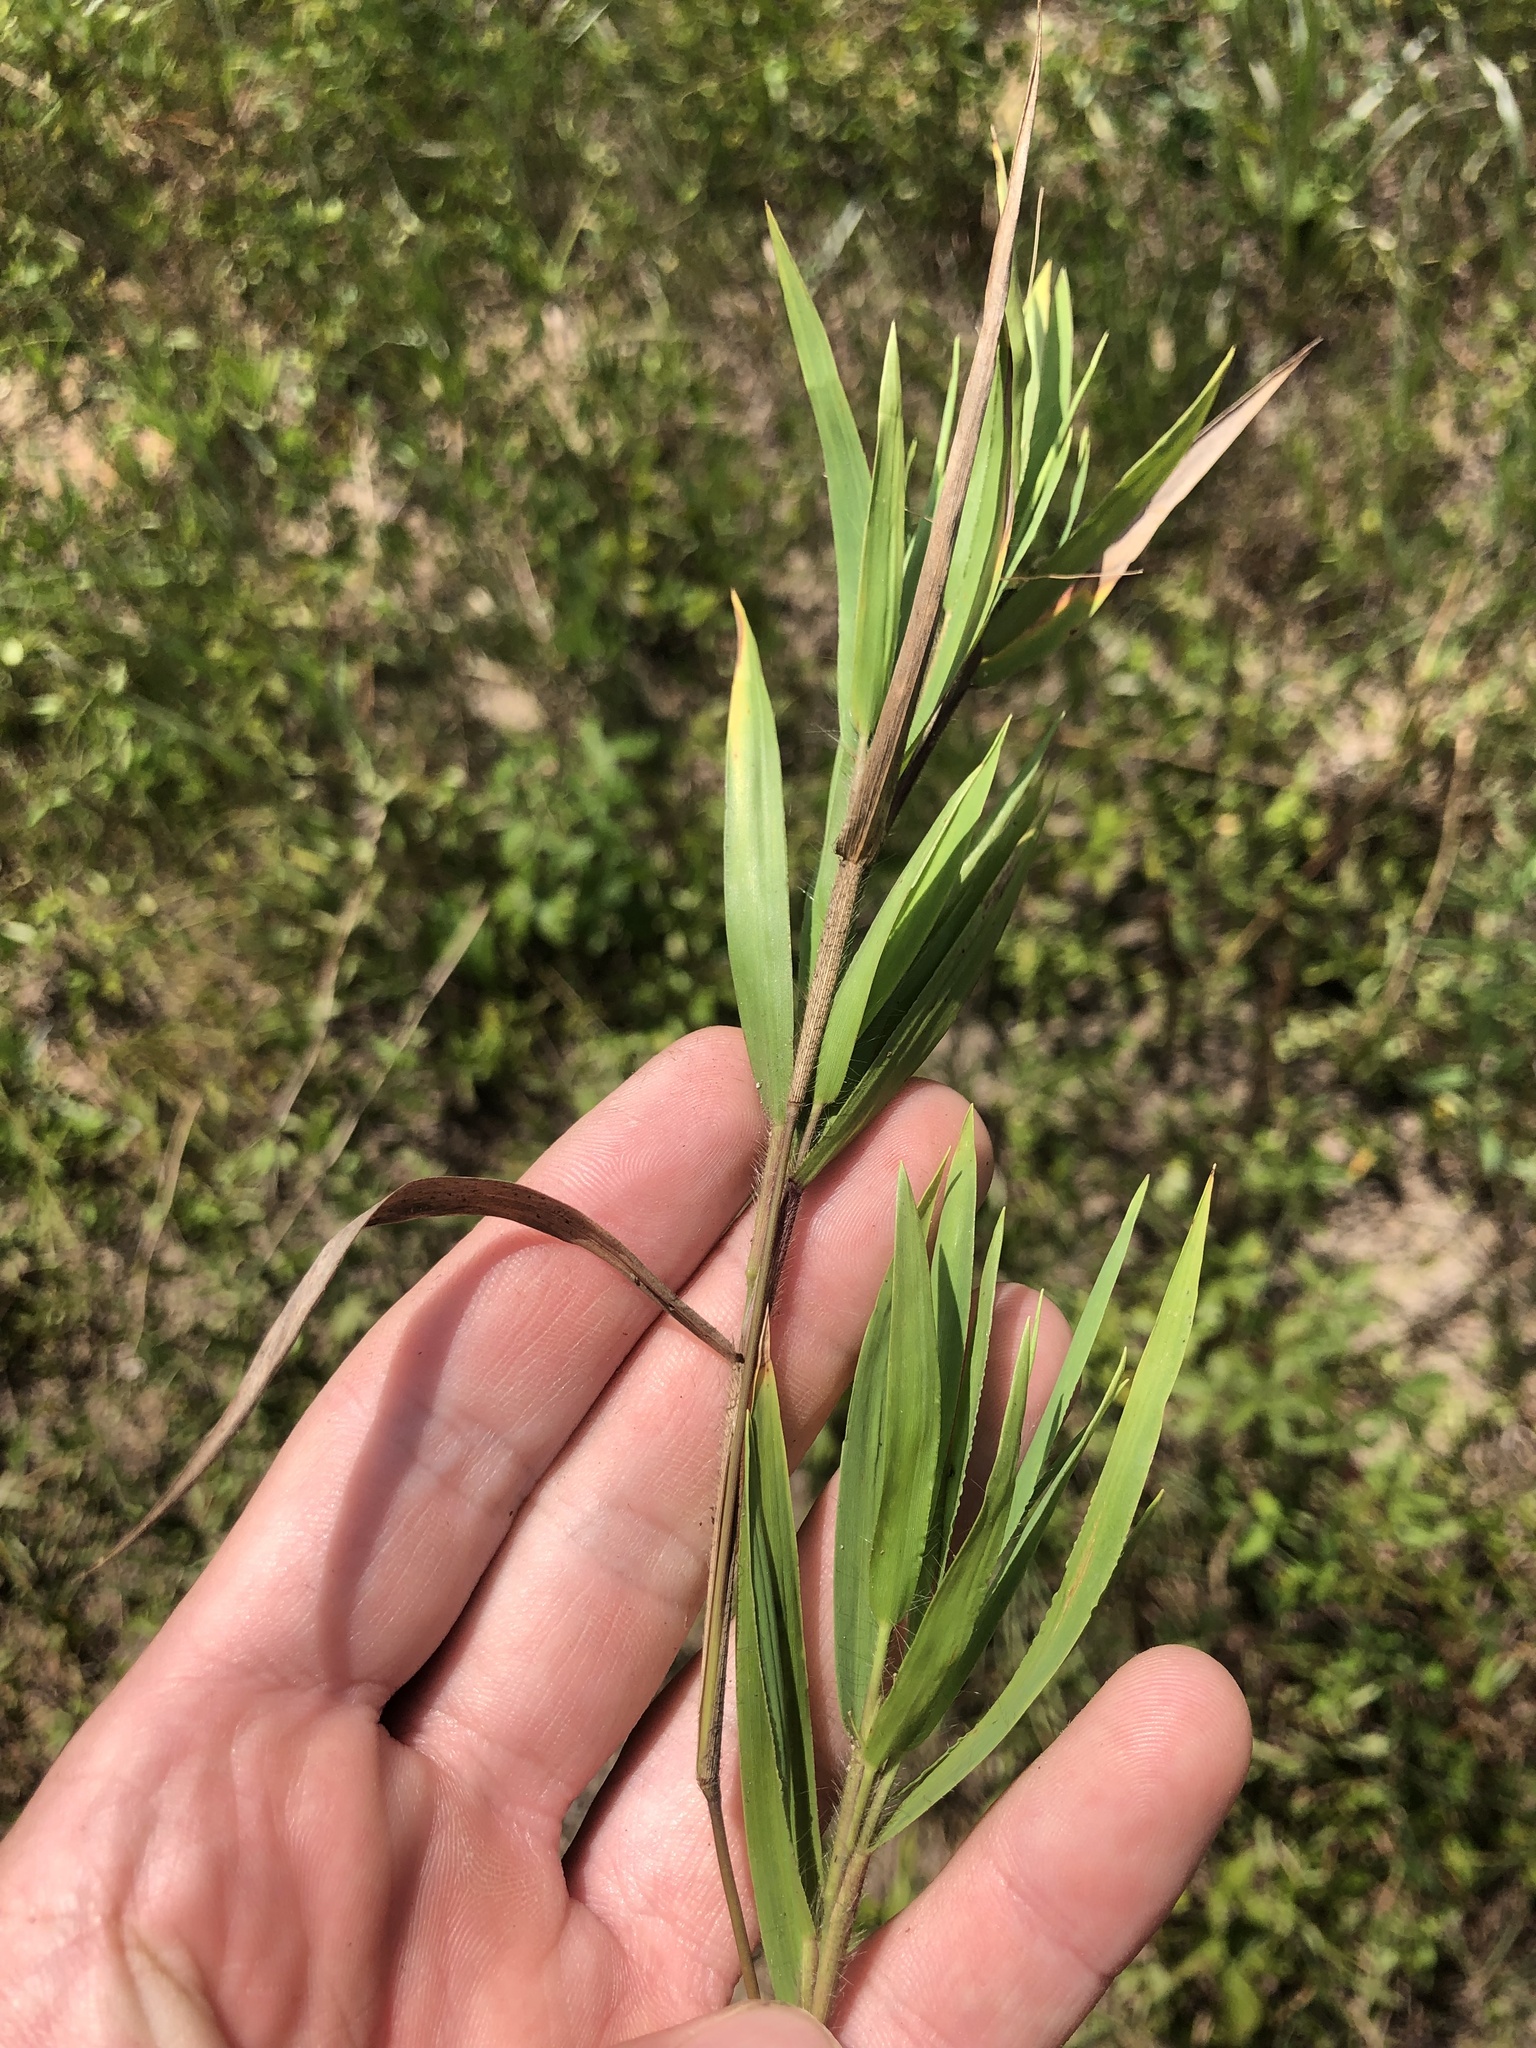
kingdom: Plantae
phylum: Tracheophyta
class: Liliopsida
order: Poales
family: Poaceae
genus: Dichanthelium
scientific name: Dichanthelium oligosanthes
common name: Few-anther obscuregrass
